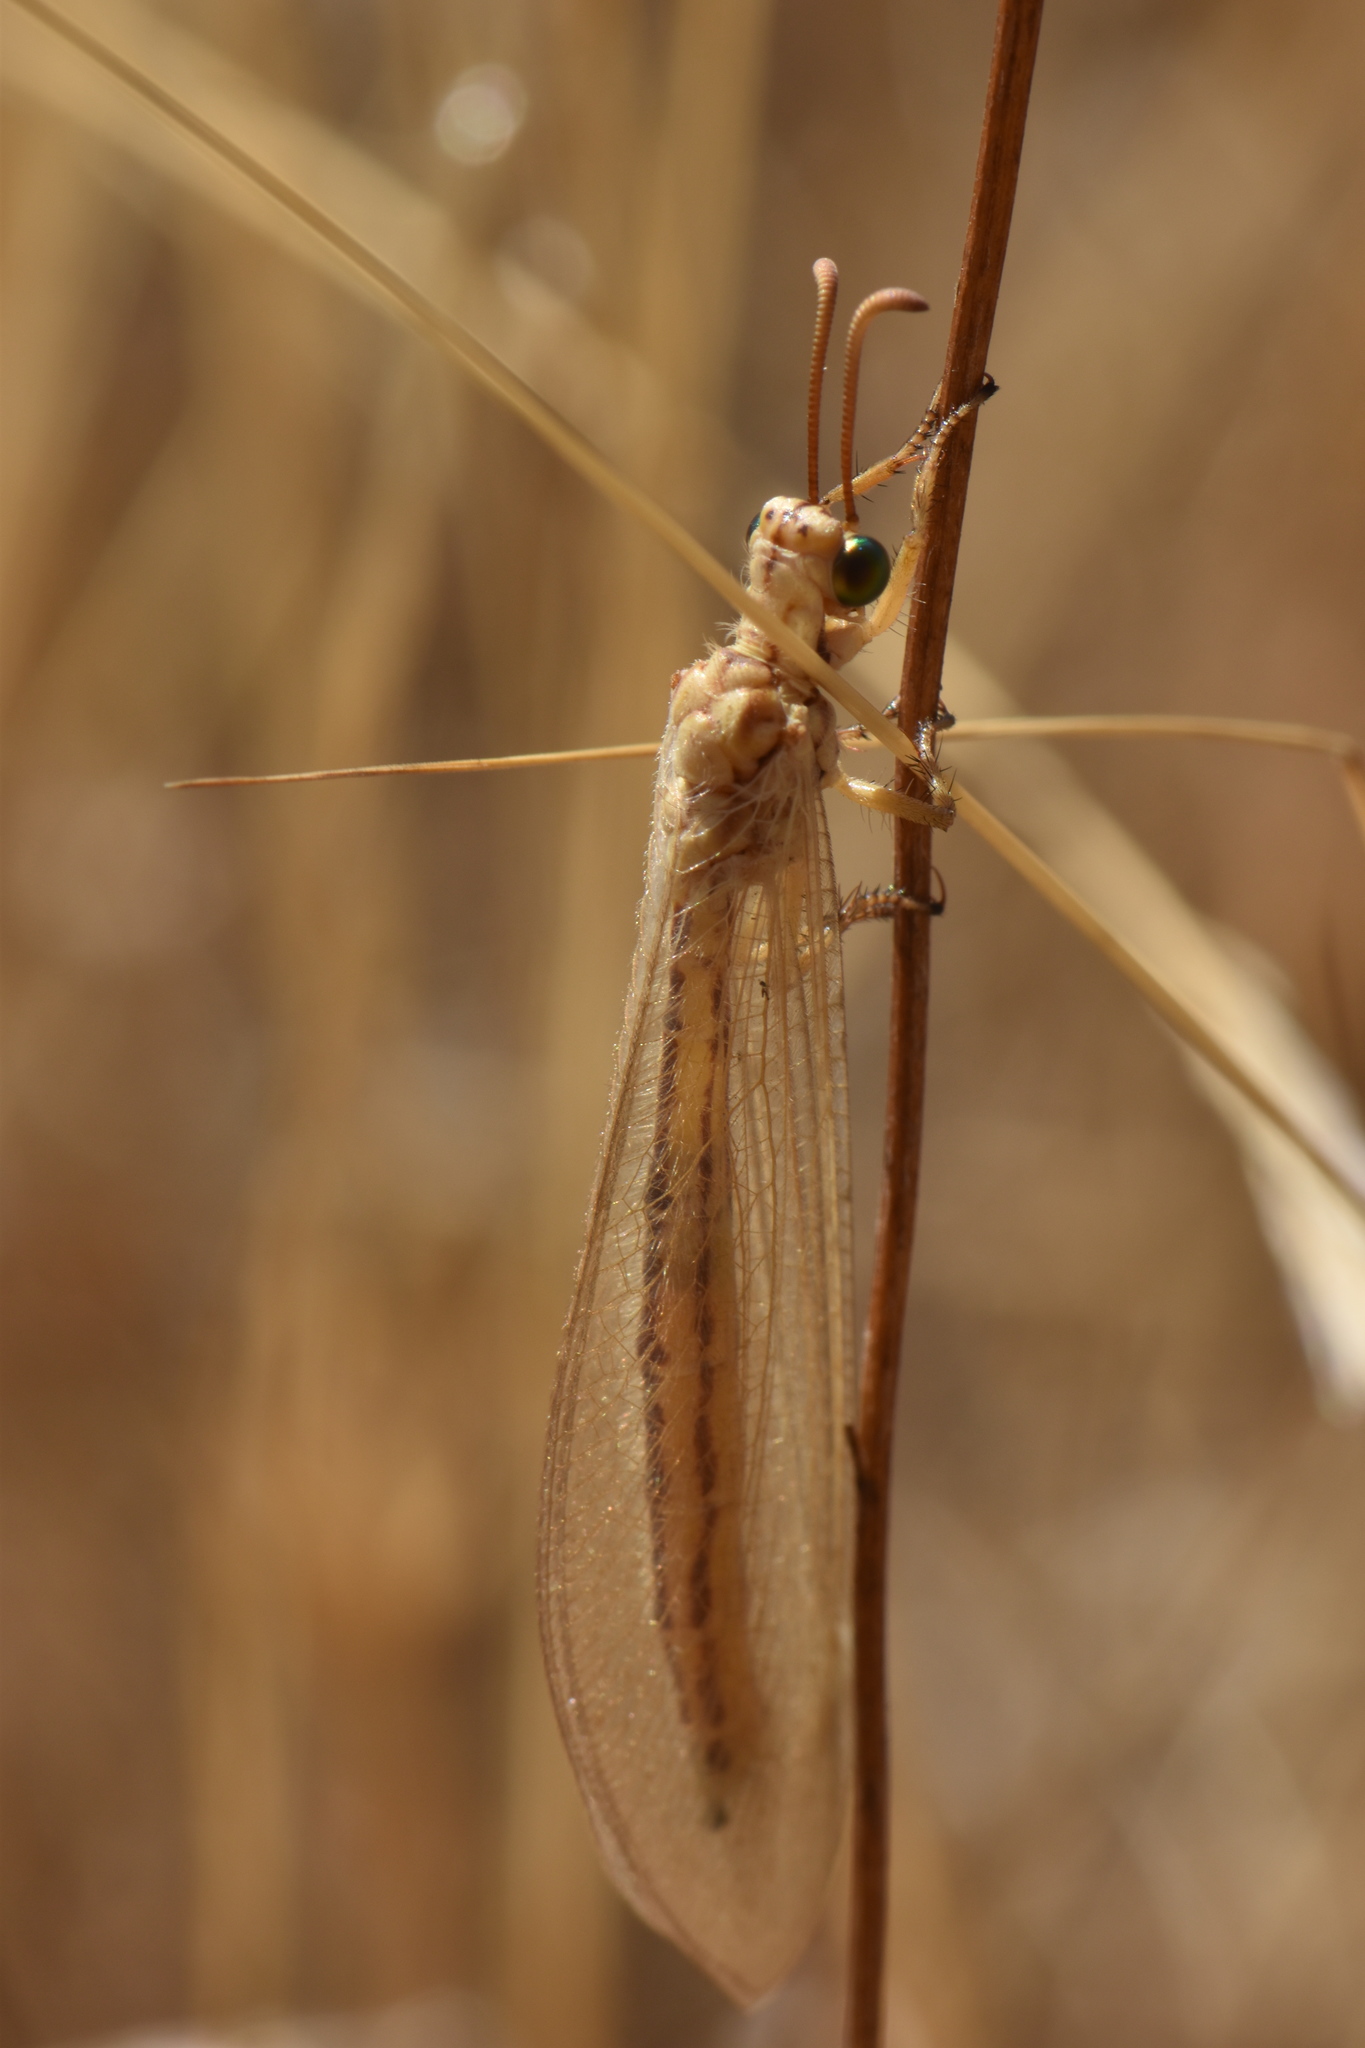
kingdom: Animalia
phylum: Arthropoda
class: Insecta
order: Neuroptera
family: Myrmeleontidae
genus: Myrmecaelurus
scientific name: Myrmecaelurus trigrammus
